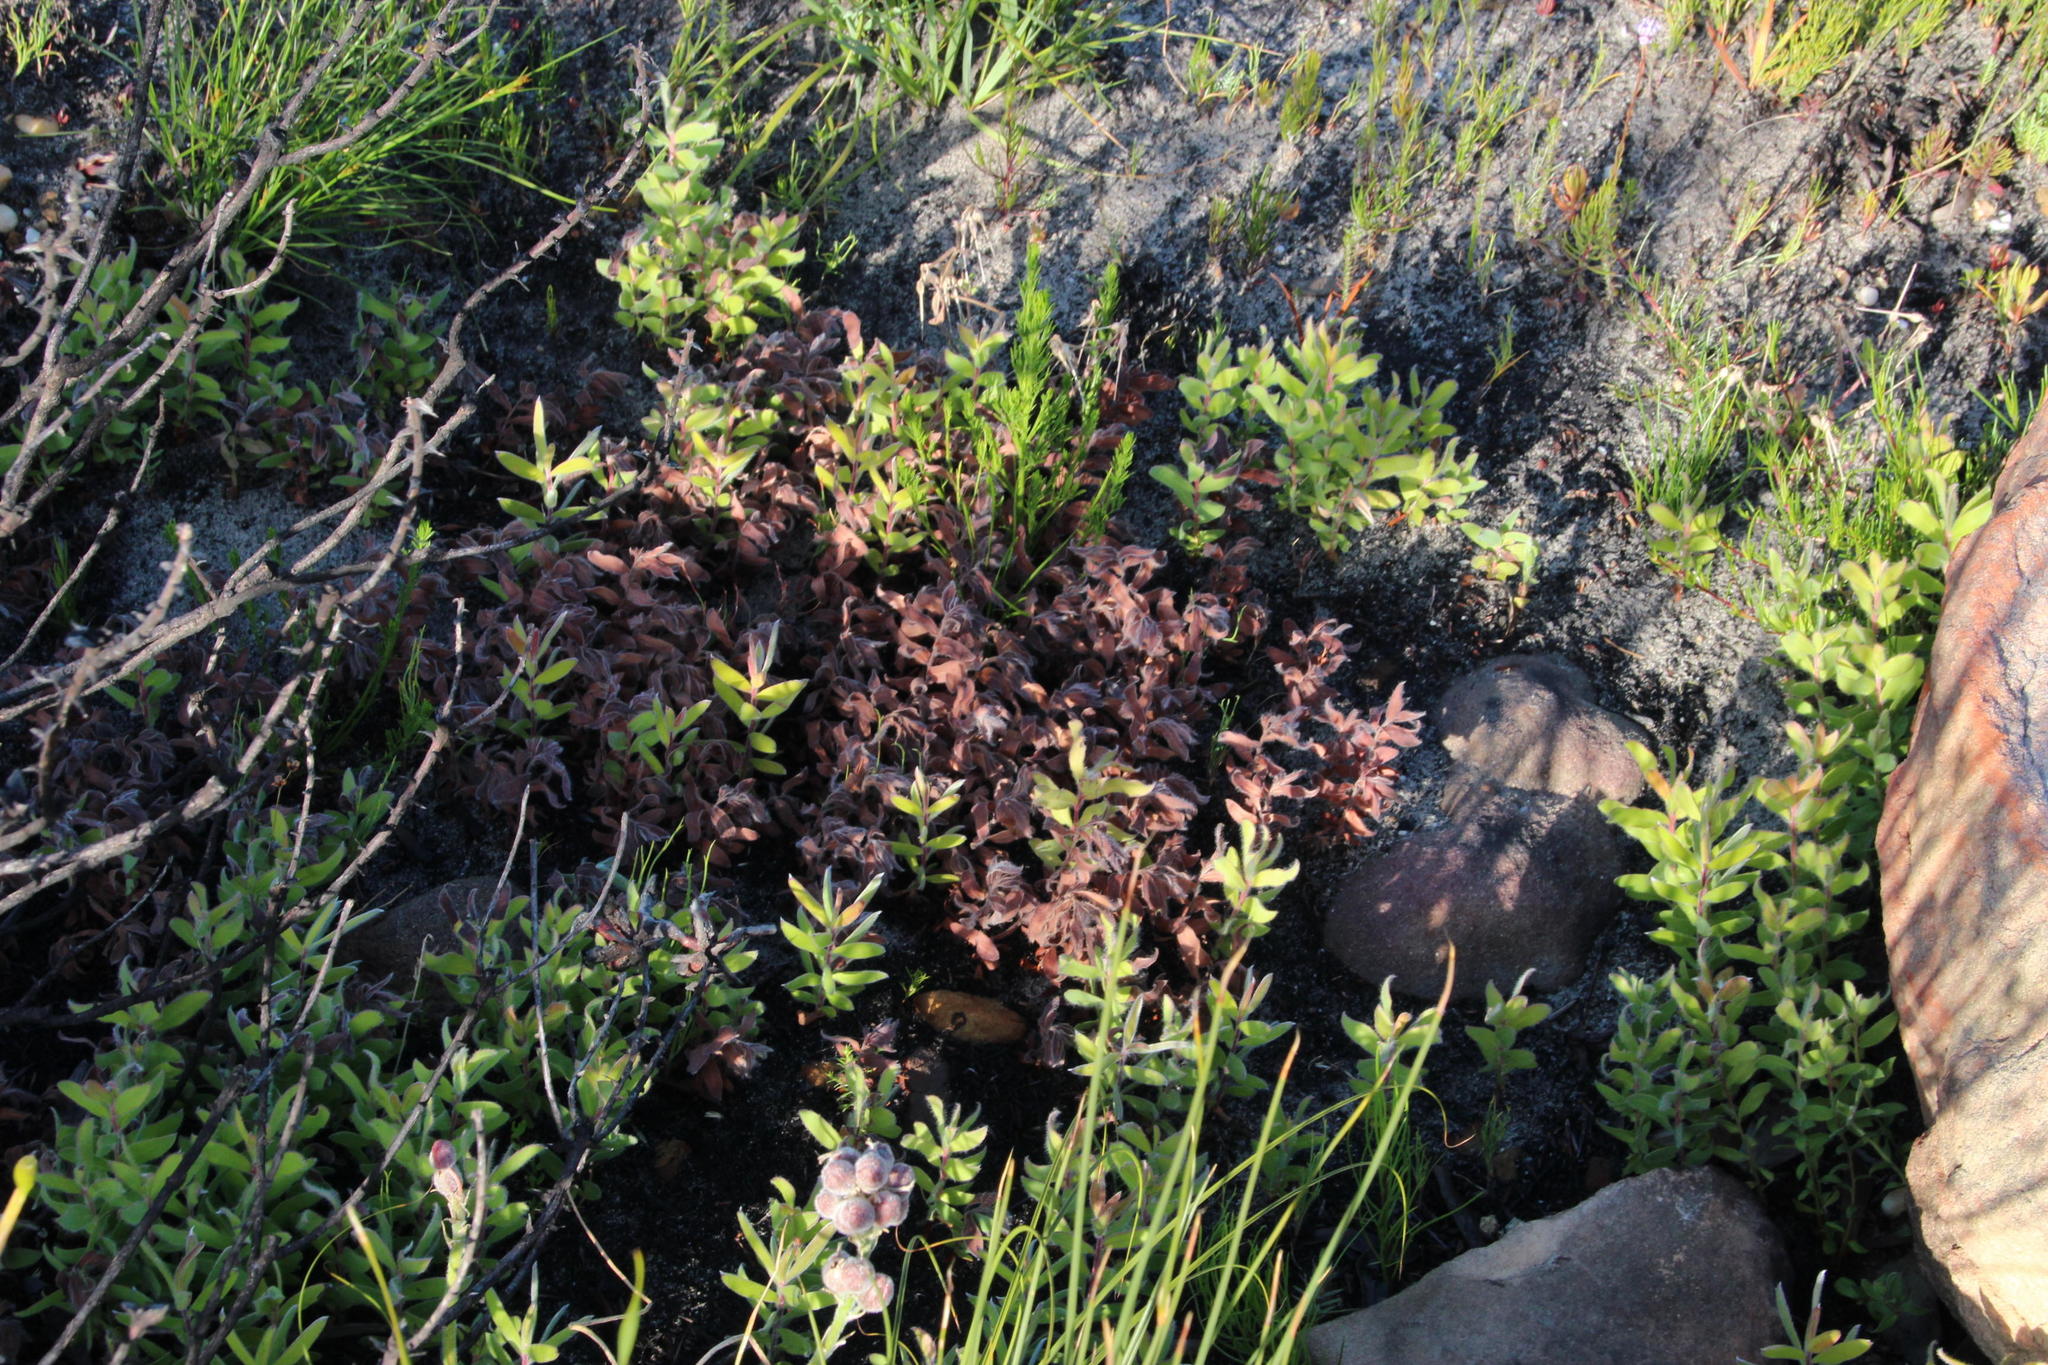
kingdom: Plantae
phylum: Tracheophyta
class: Magnoliopsida
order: Proteales
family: Proteaceae
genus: Leucadendron
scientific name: Leucadendron laureolum
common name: Golden sunshinebush
